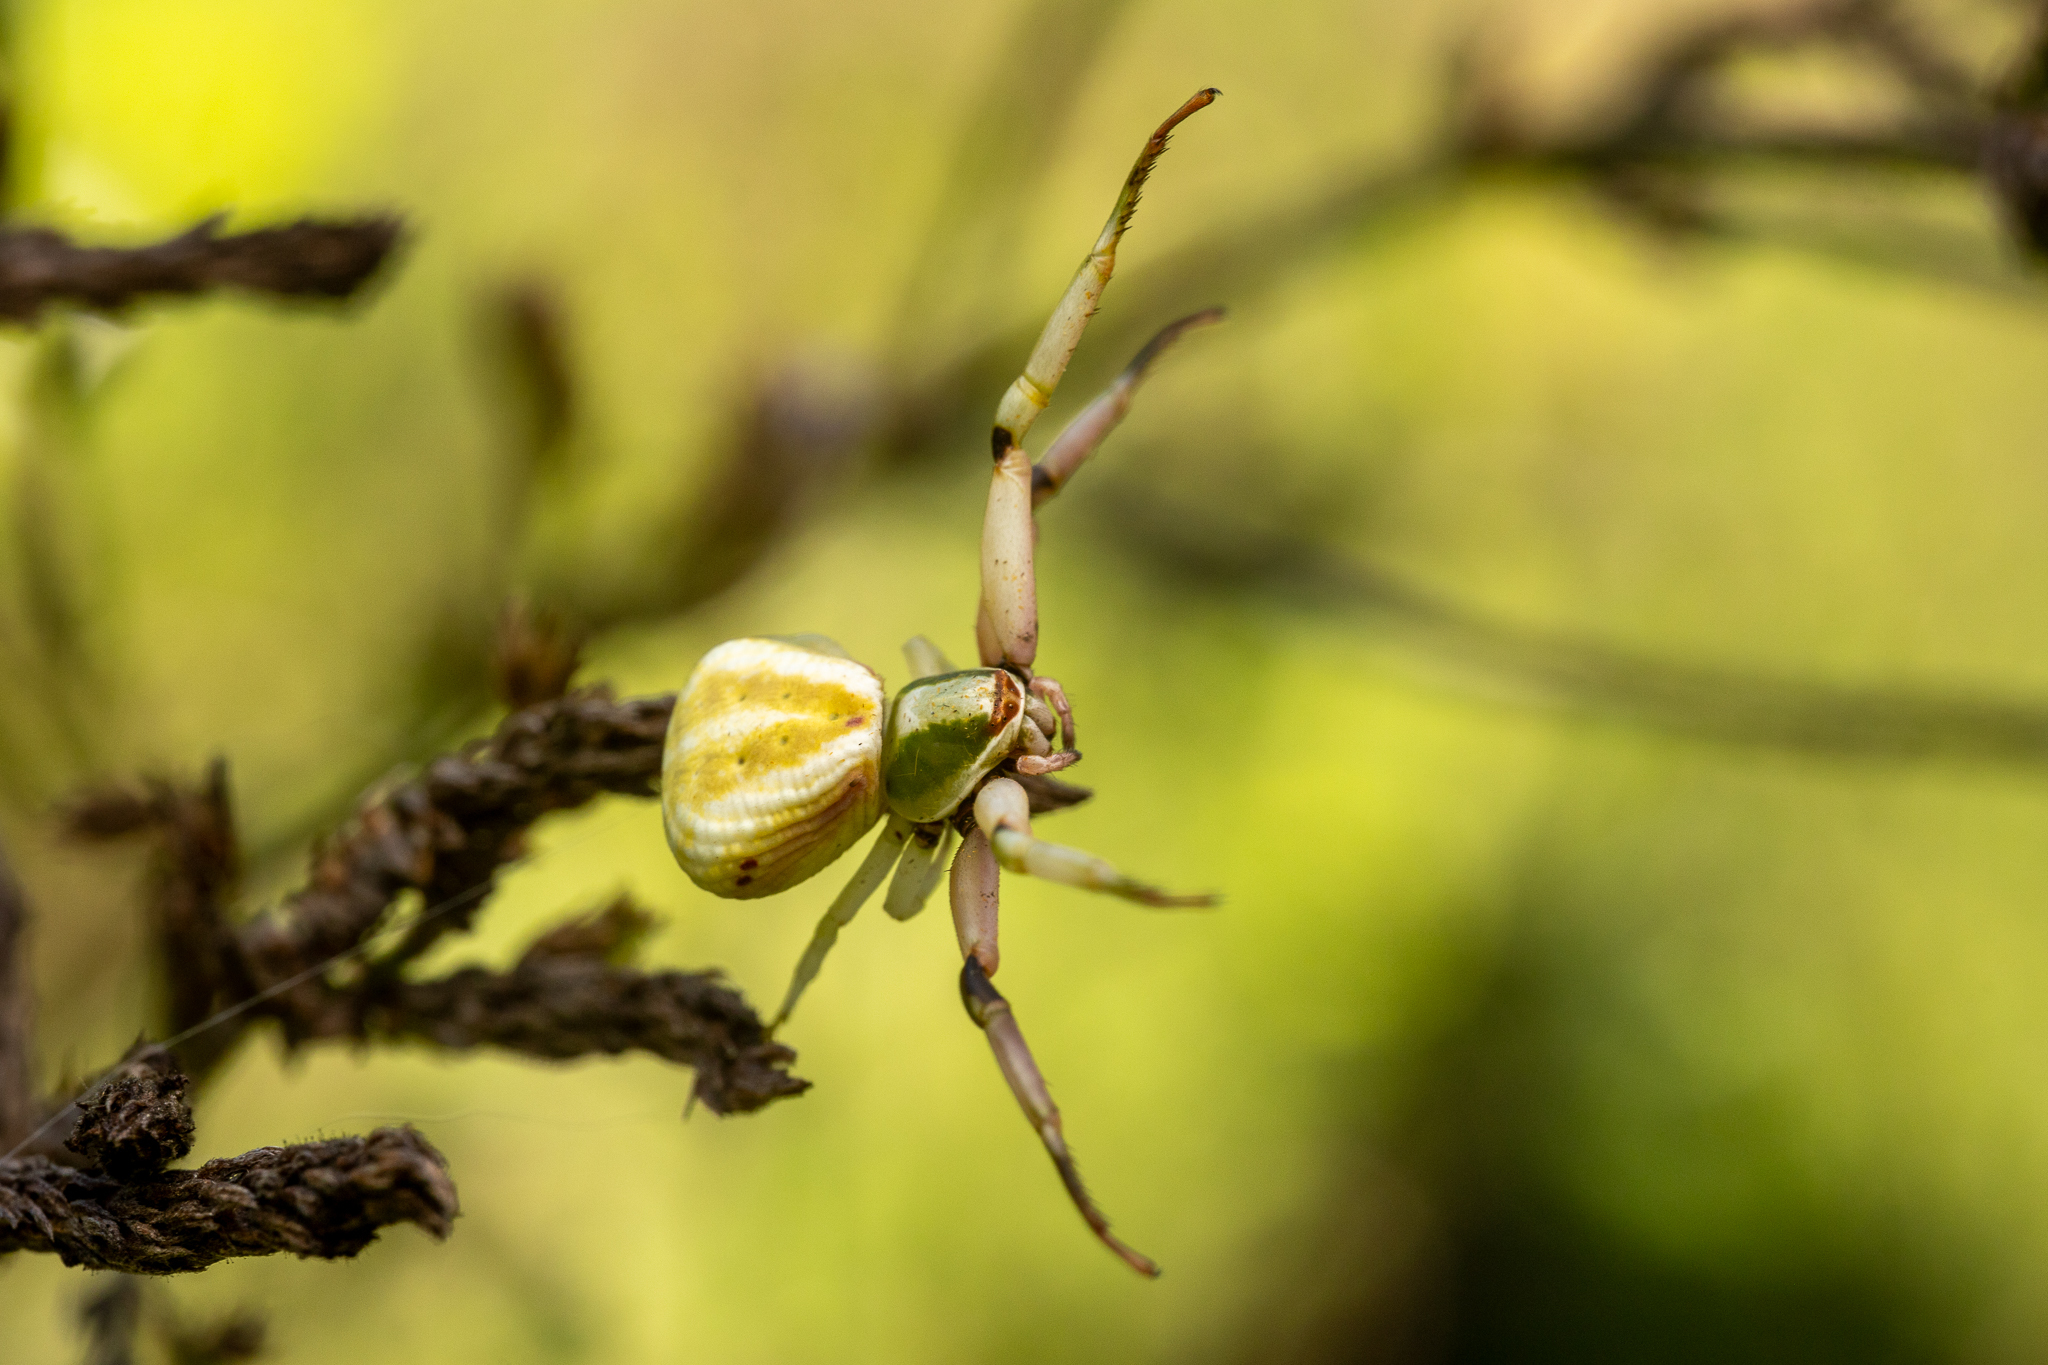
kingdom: Animalia
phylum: Arthropoda
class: Arachnida
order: Araneae
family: Thomisidae
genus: Misumenoides
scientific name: Misumenoides formosipes
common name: White-banded crab spider
